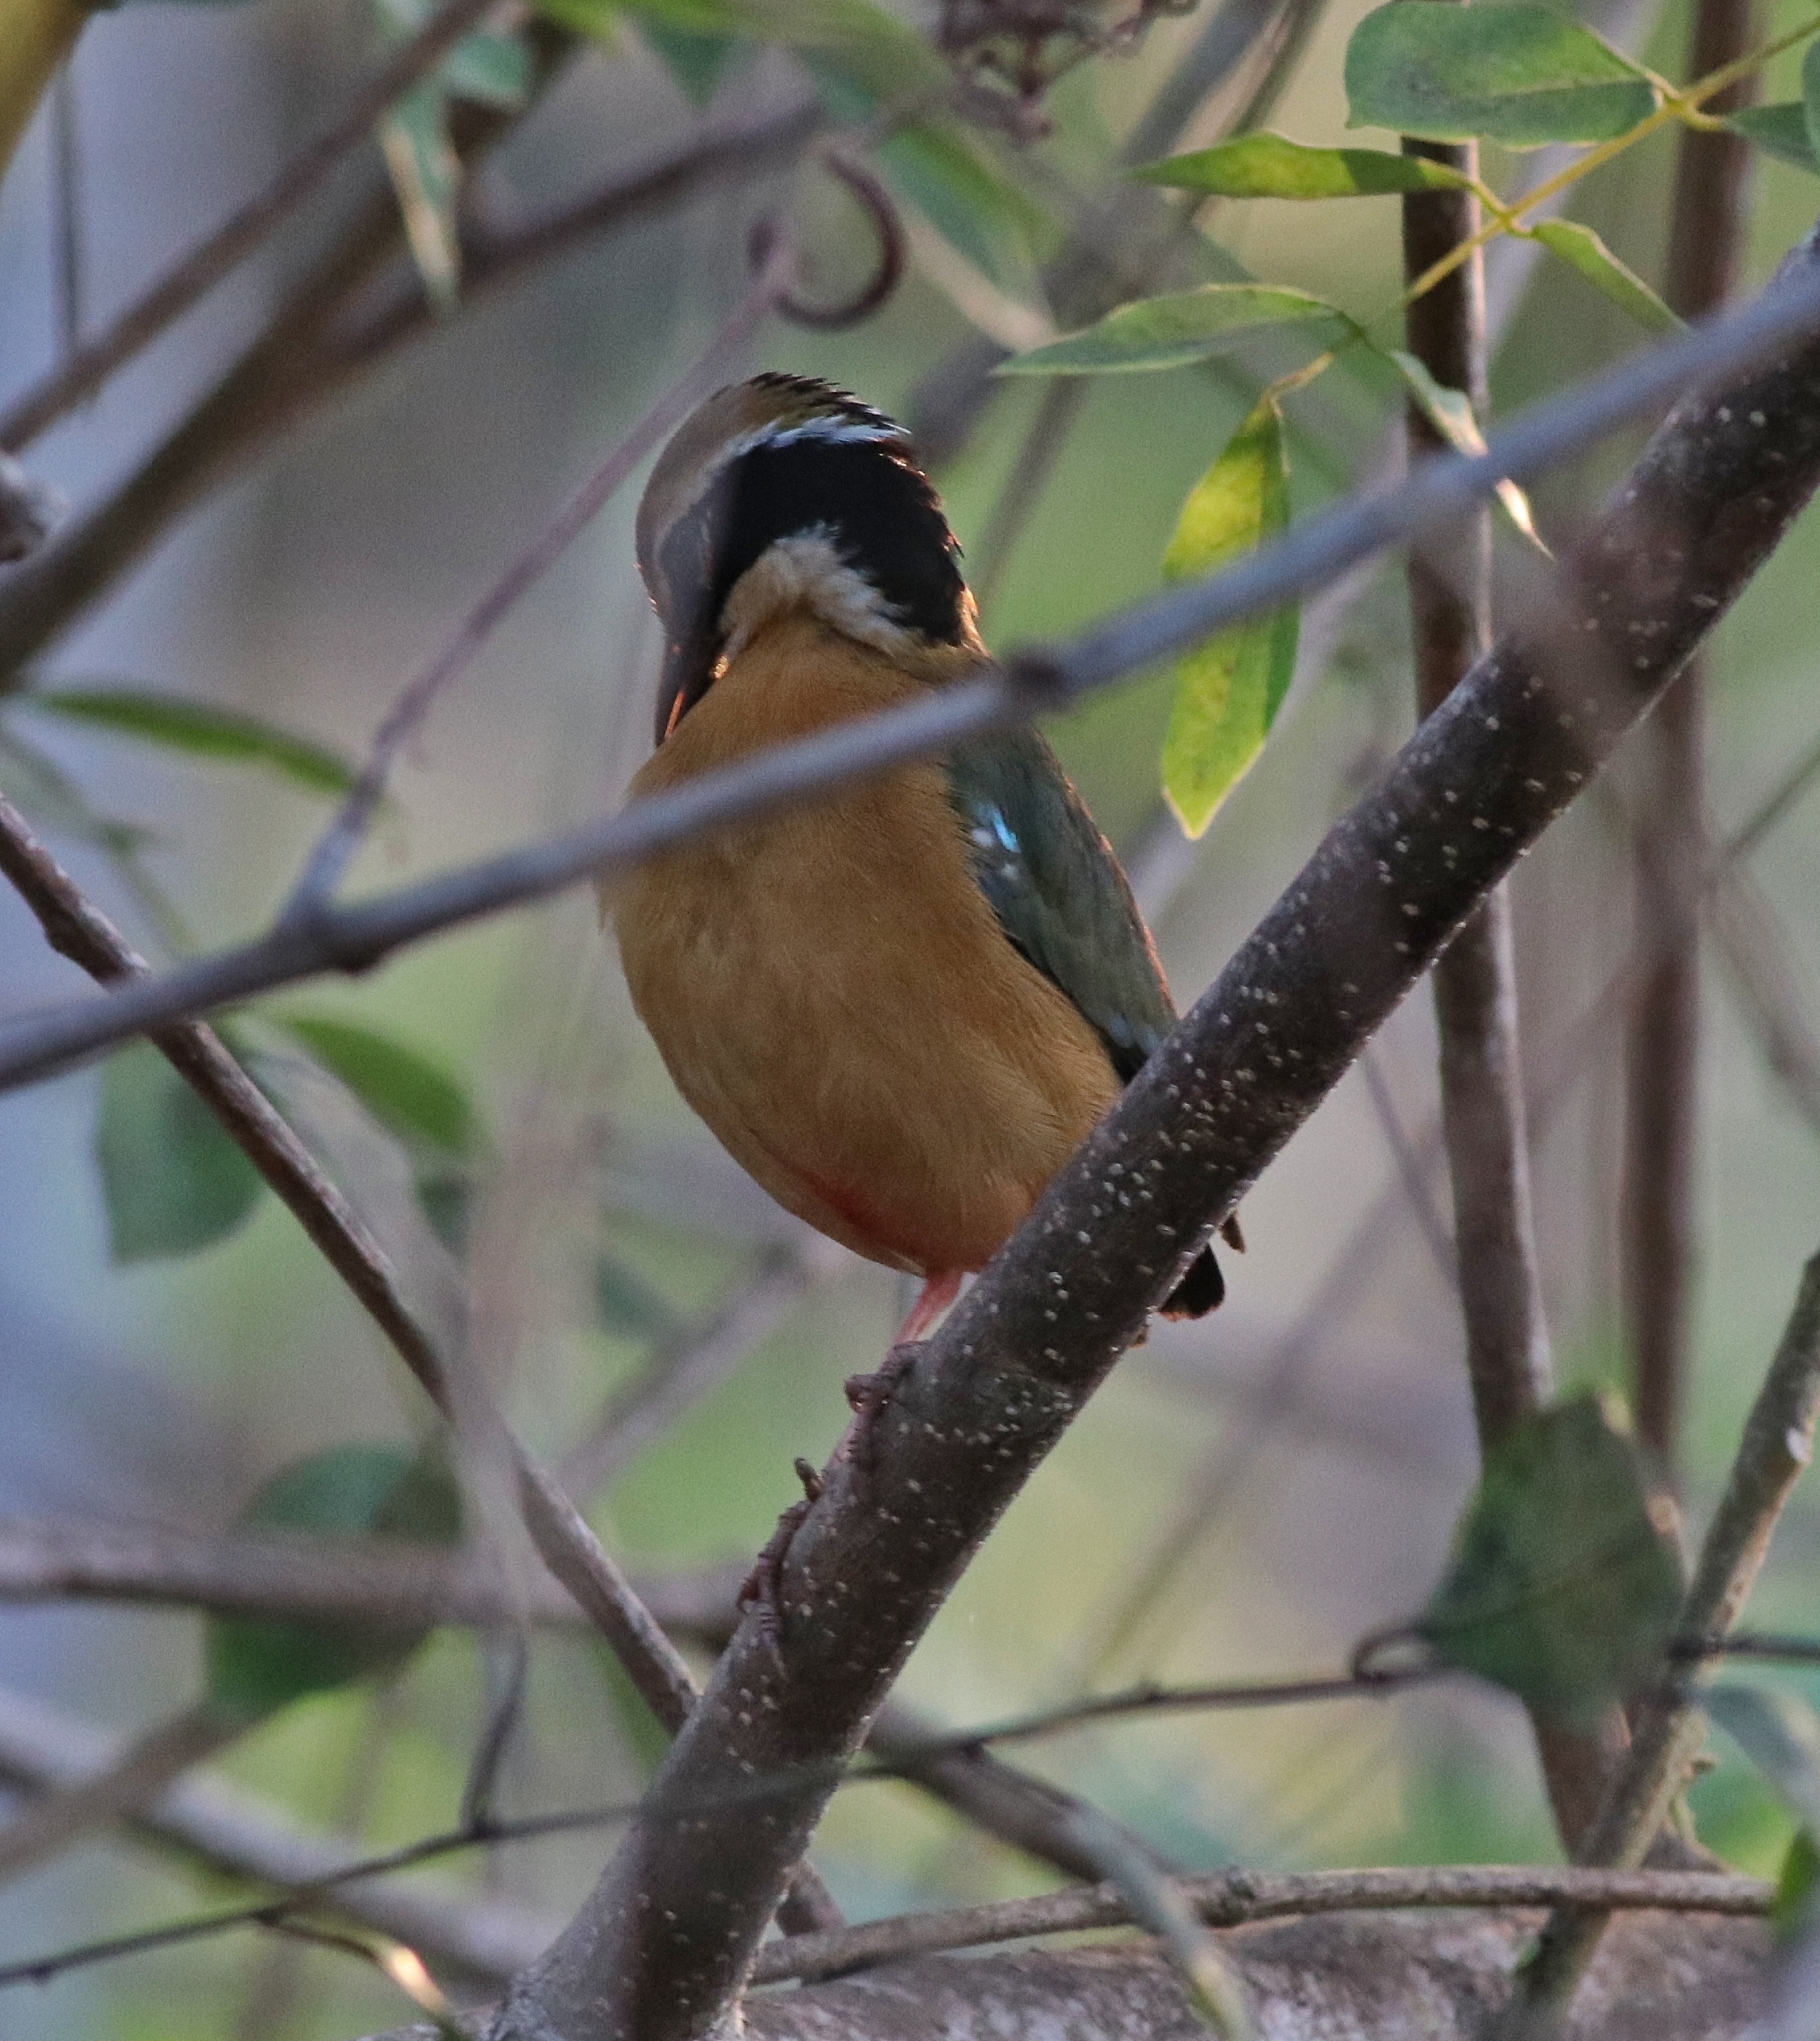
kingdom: Animalia
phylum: Chordata
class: Aves
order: Passeriformes
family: Pittidae
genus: Pitta
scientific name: Pitta brachyura
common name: Indian pitta
